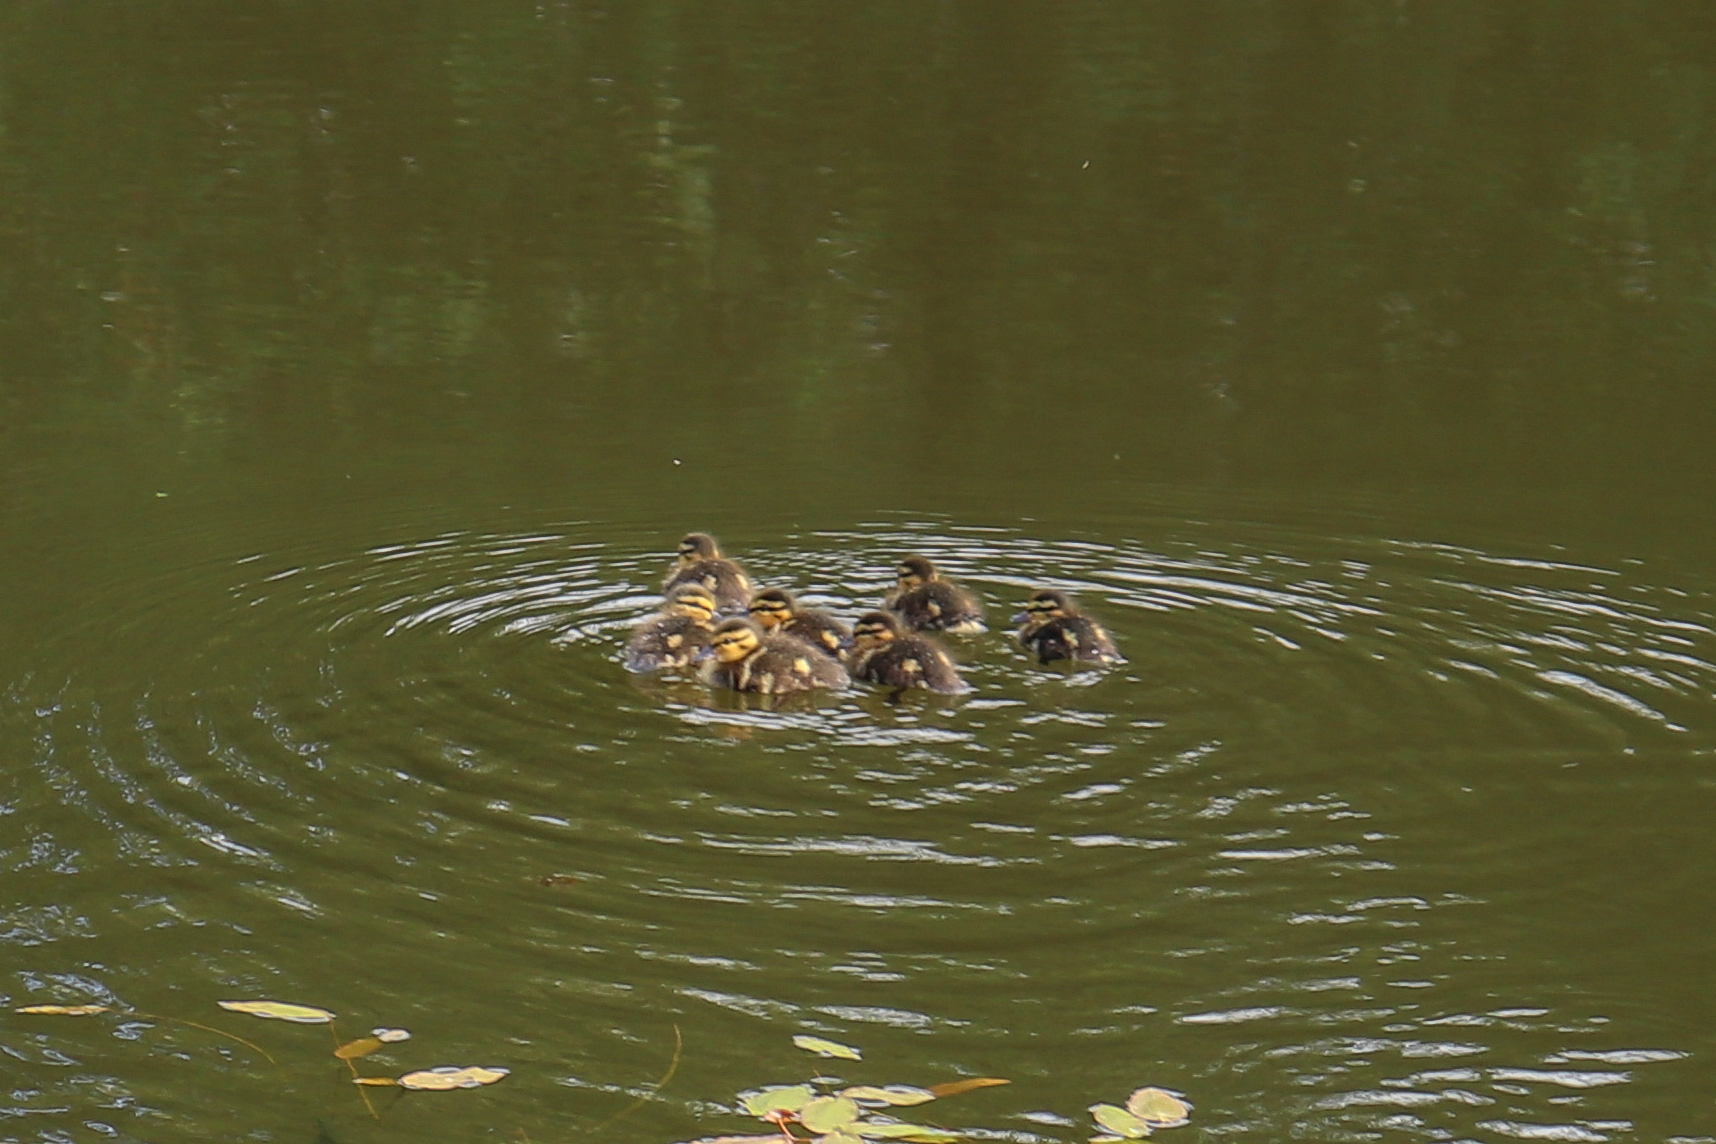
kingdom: Animalia
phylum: Chordata
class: Aves
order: Anseriformes
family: Anatidae
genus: Anas
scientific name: Anas platyrhynchos
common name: Mallard
